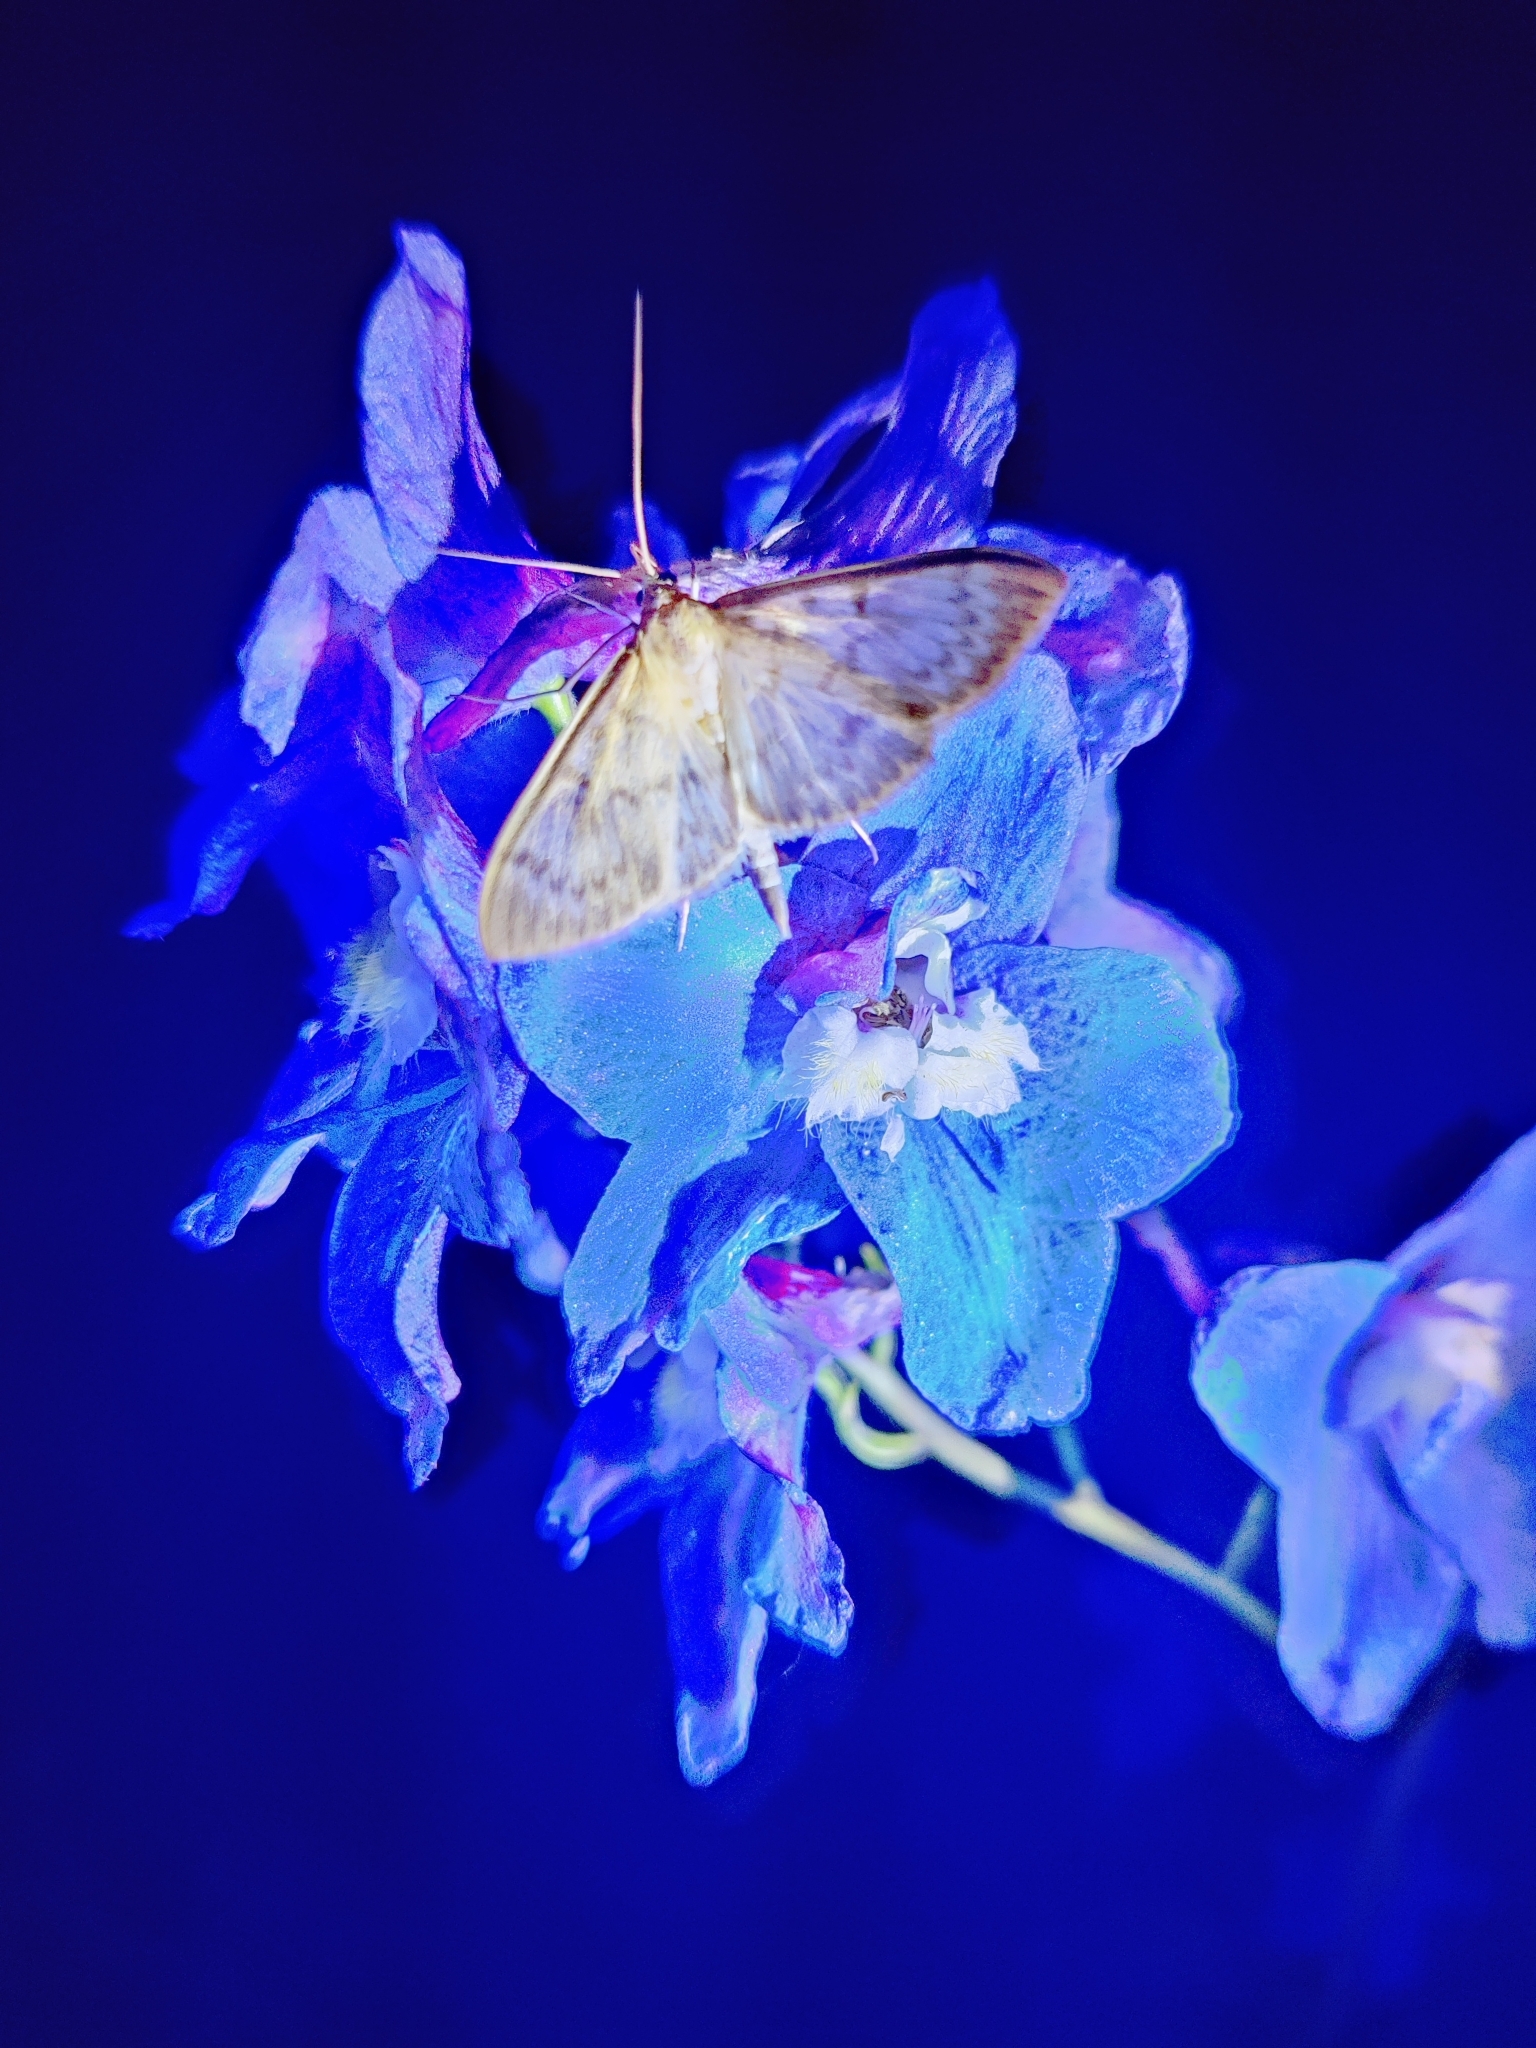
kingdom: Animalia
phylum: Arthropoda
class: Insecta
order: Lepidoptera
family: Crambidae
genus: Patania
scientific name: Patania ruralis
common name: Mother of pearl
